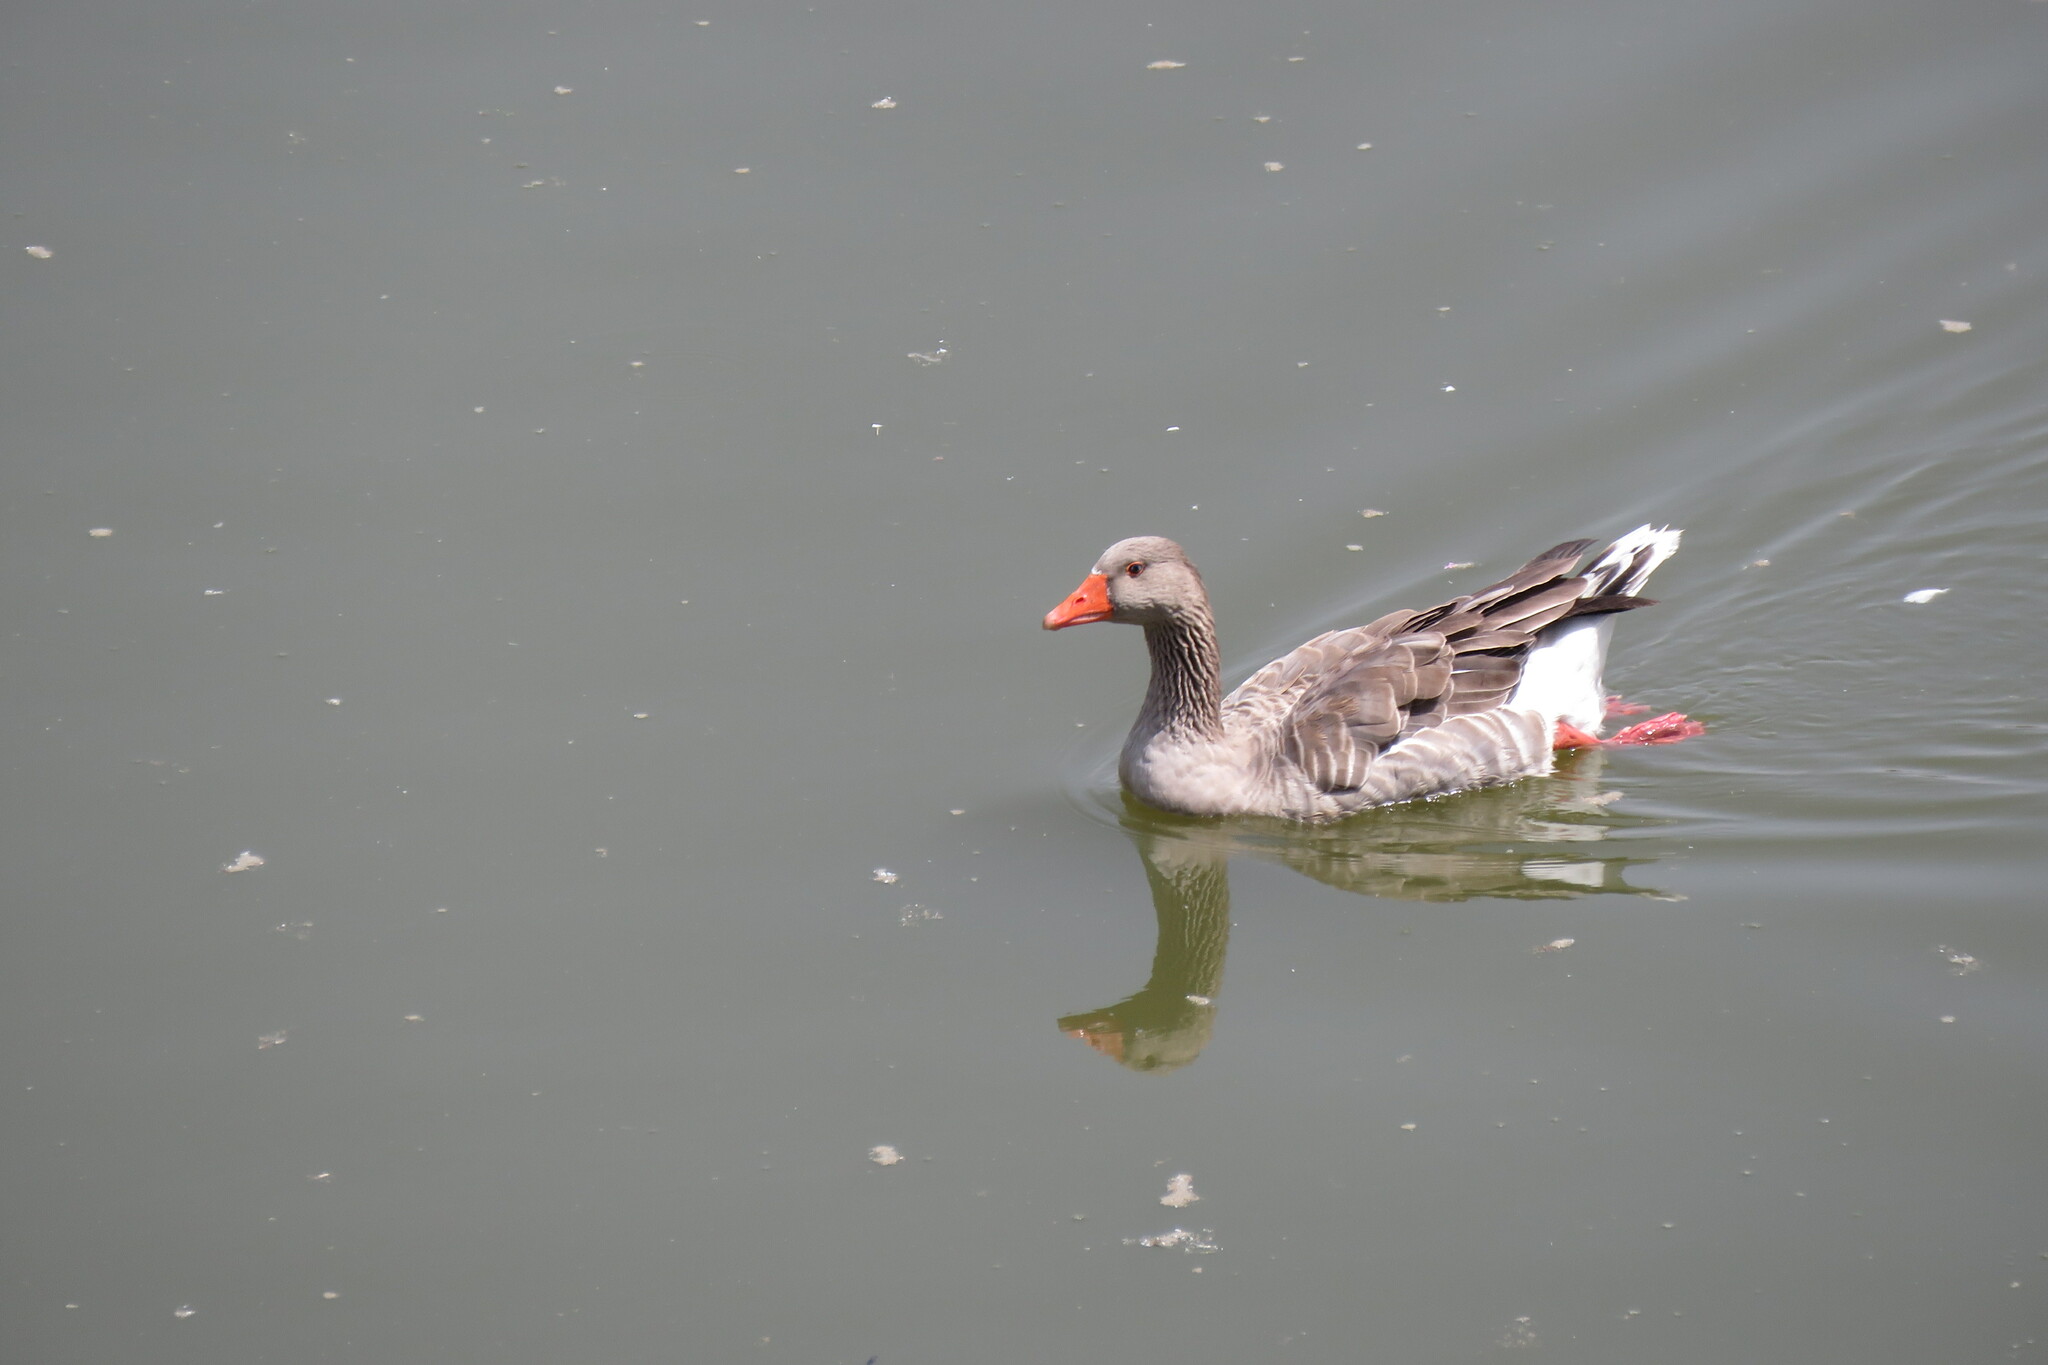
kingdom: Animalia
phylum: Chordata
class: Aves
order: Anseriformes
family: Anatidae
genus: Anser
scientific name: Anser anser
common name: Greylag goose
